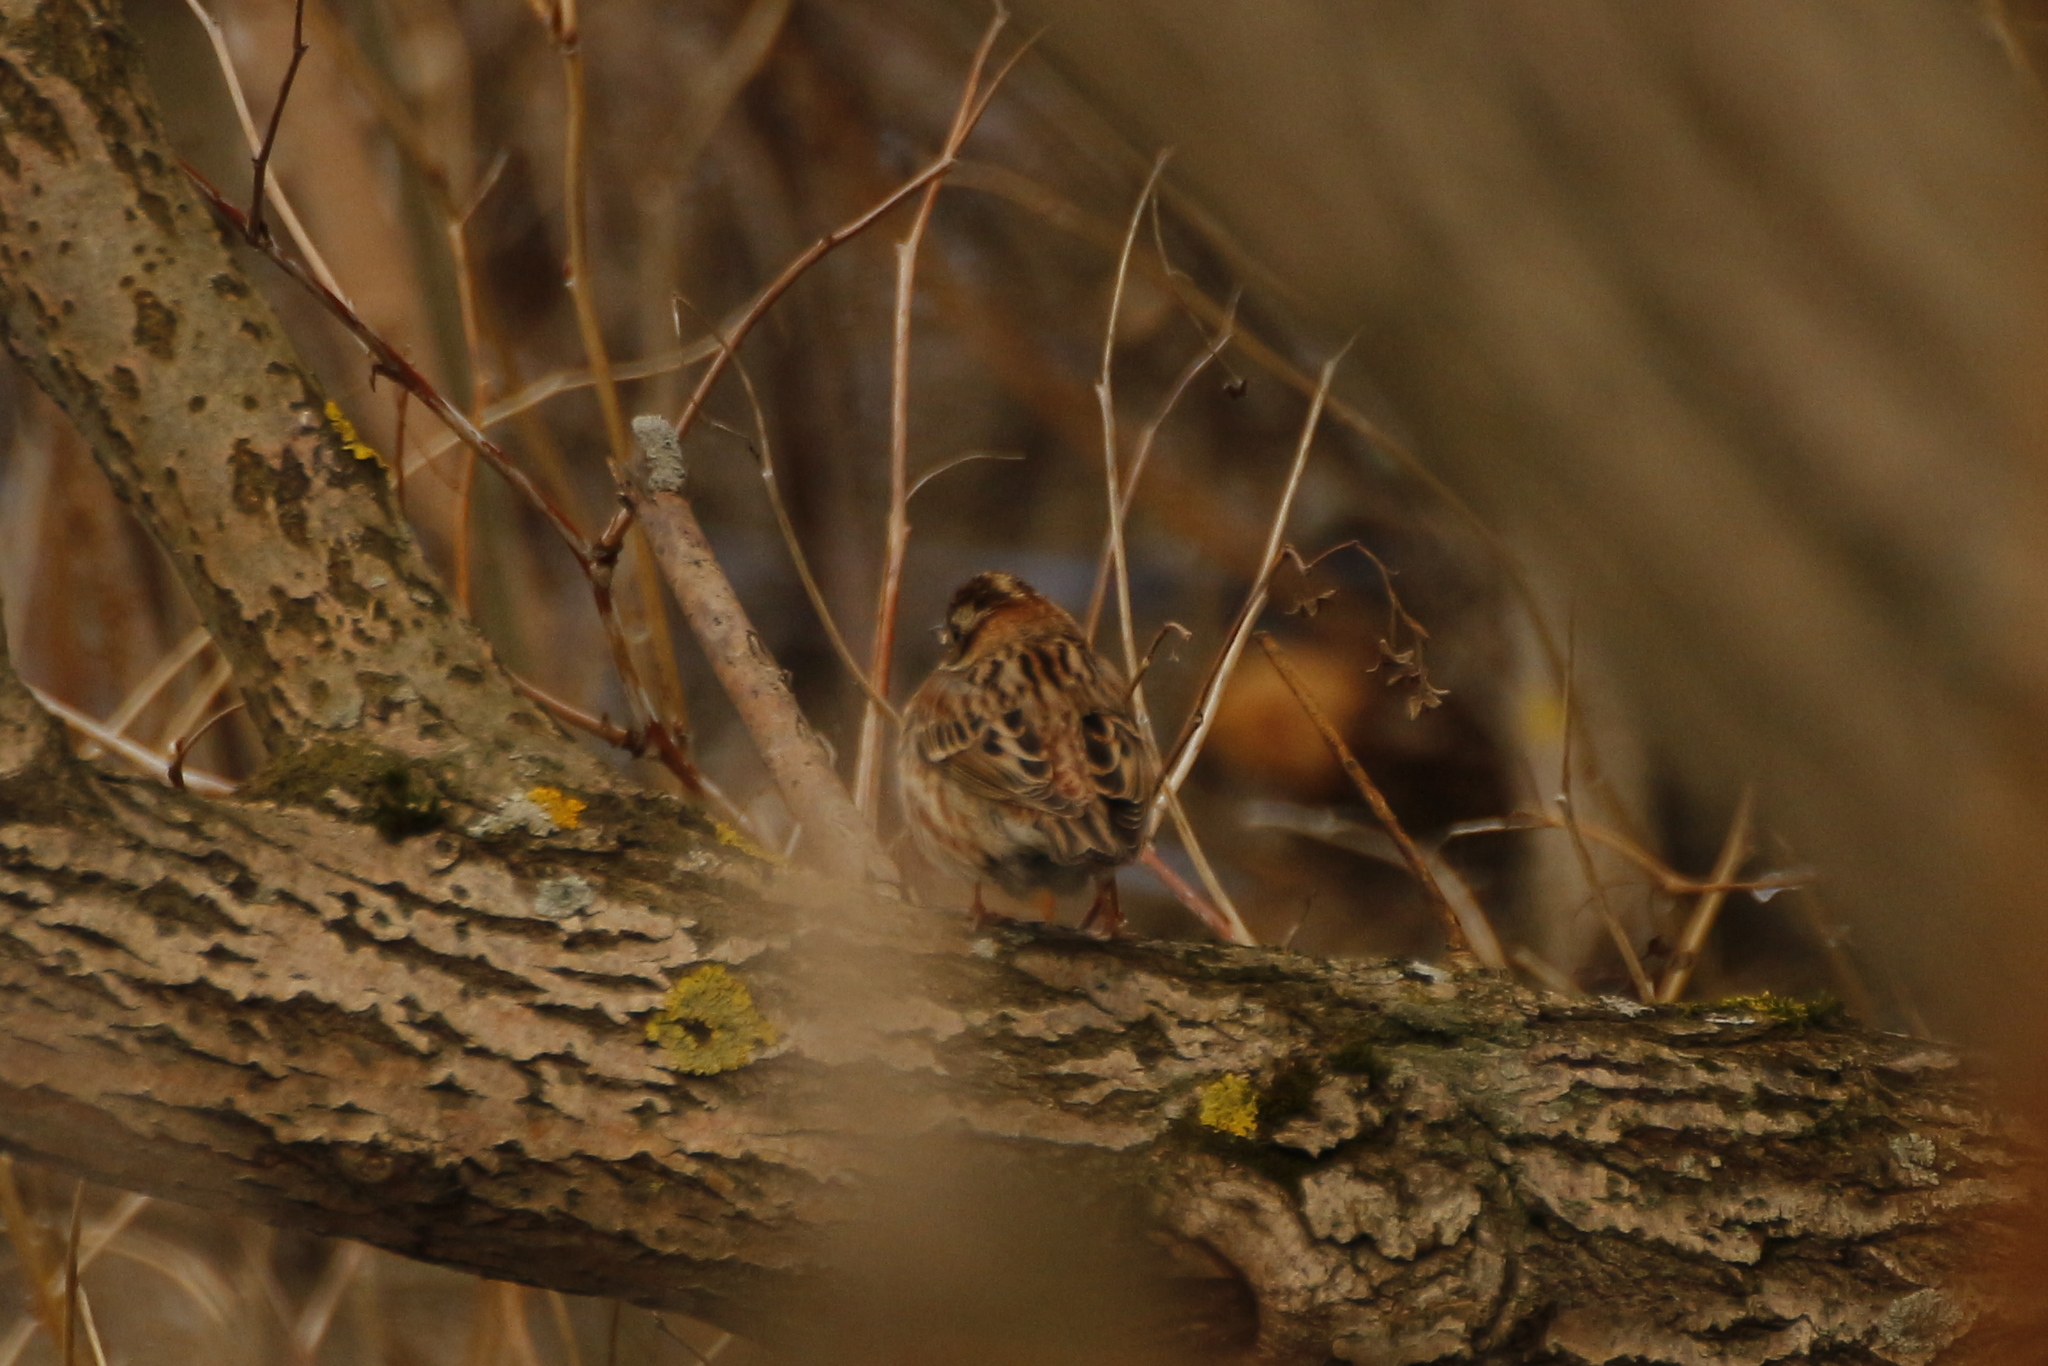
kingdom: Animalia
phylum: Chordata
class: Aves
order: Passeriformes
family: Emberizidae
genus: Emberiza
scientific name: Emberiza rustica
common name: Rustic bunting
